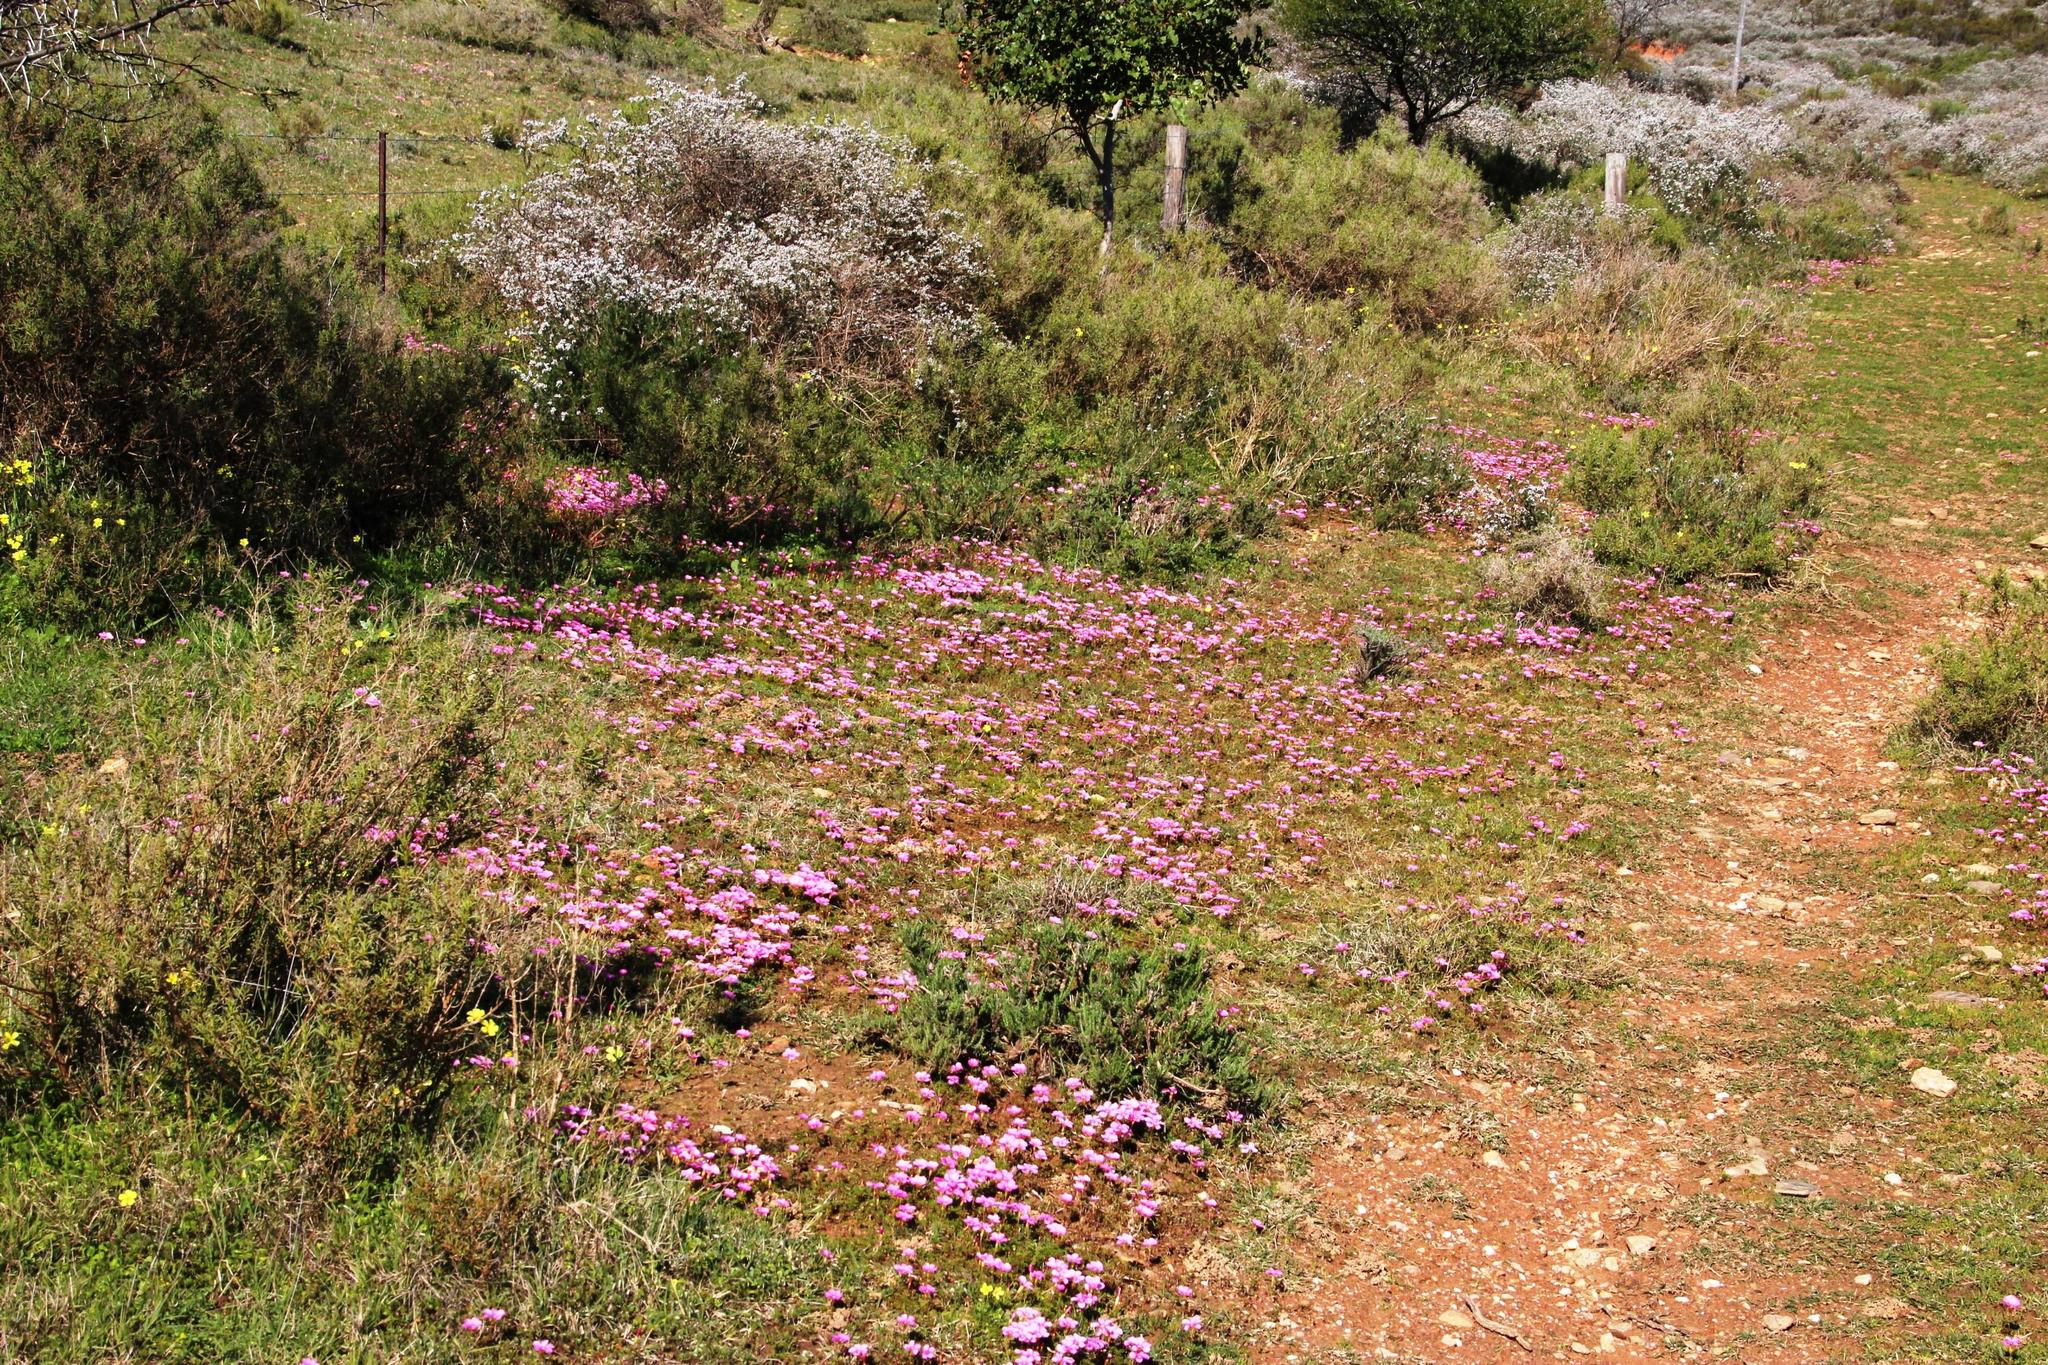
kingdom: Plantae
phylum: Tracheophyta
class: Magnoliopsida
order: Oxalidales
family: Oxalidaceae
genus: Oxalis
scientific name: Oxalis glabra
